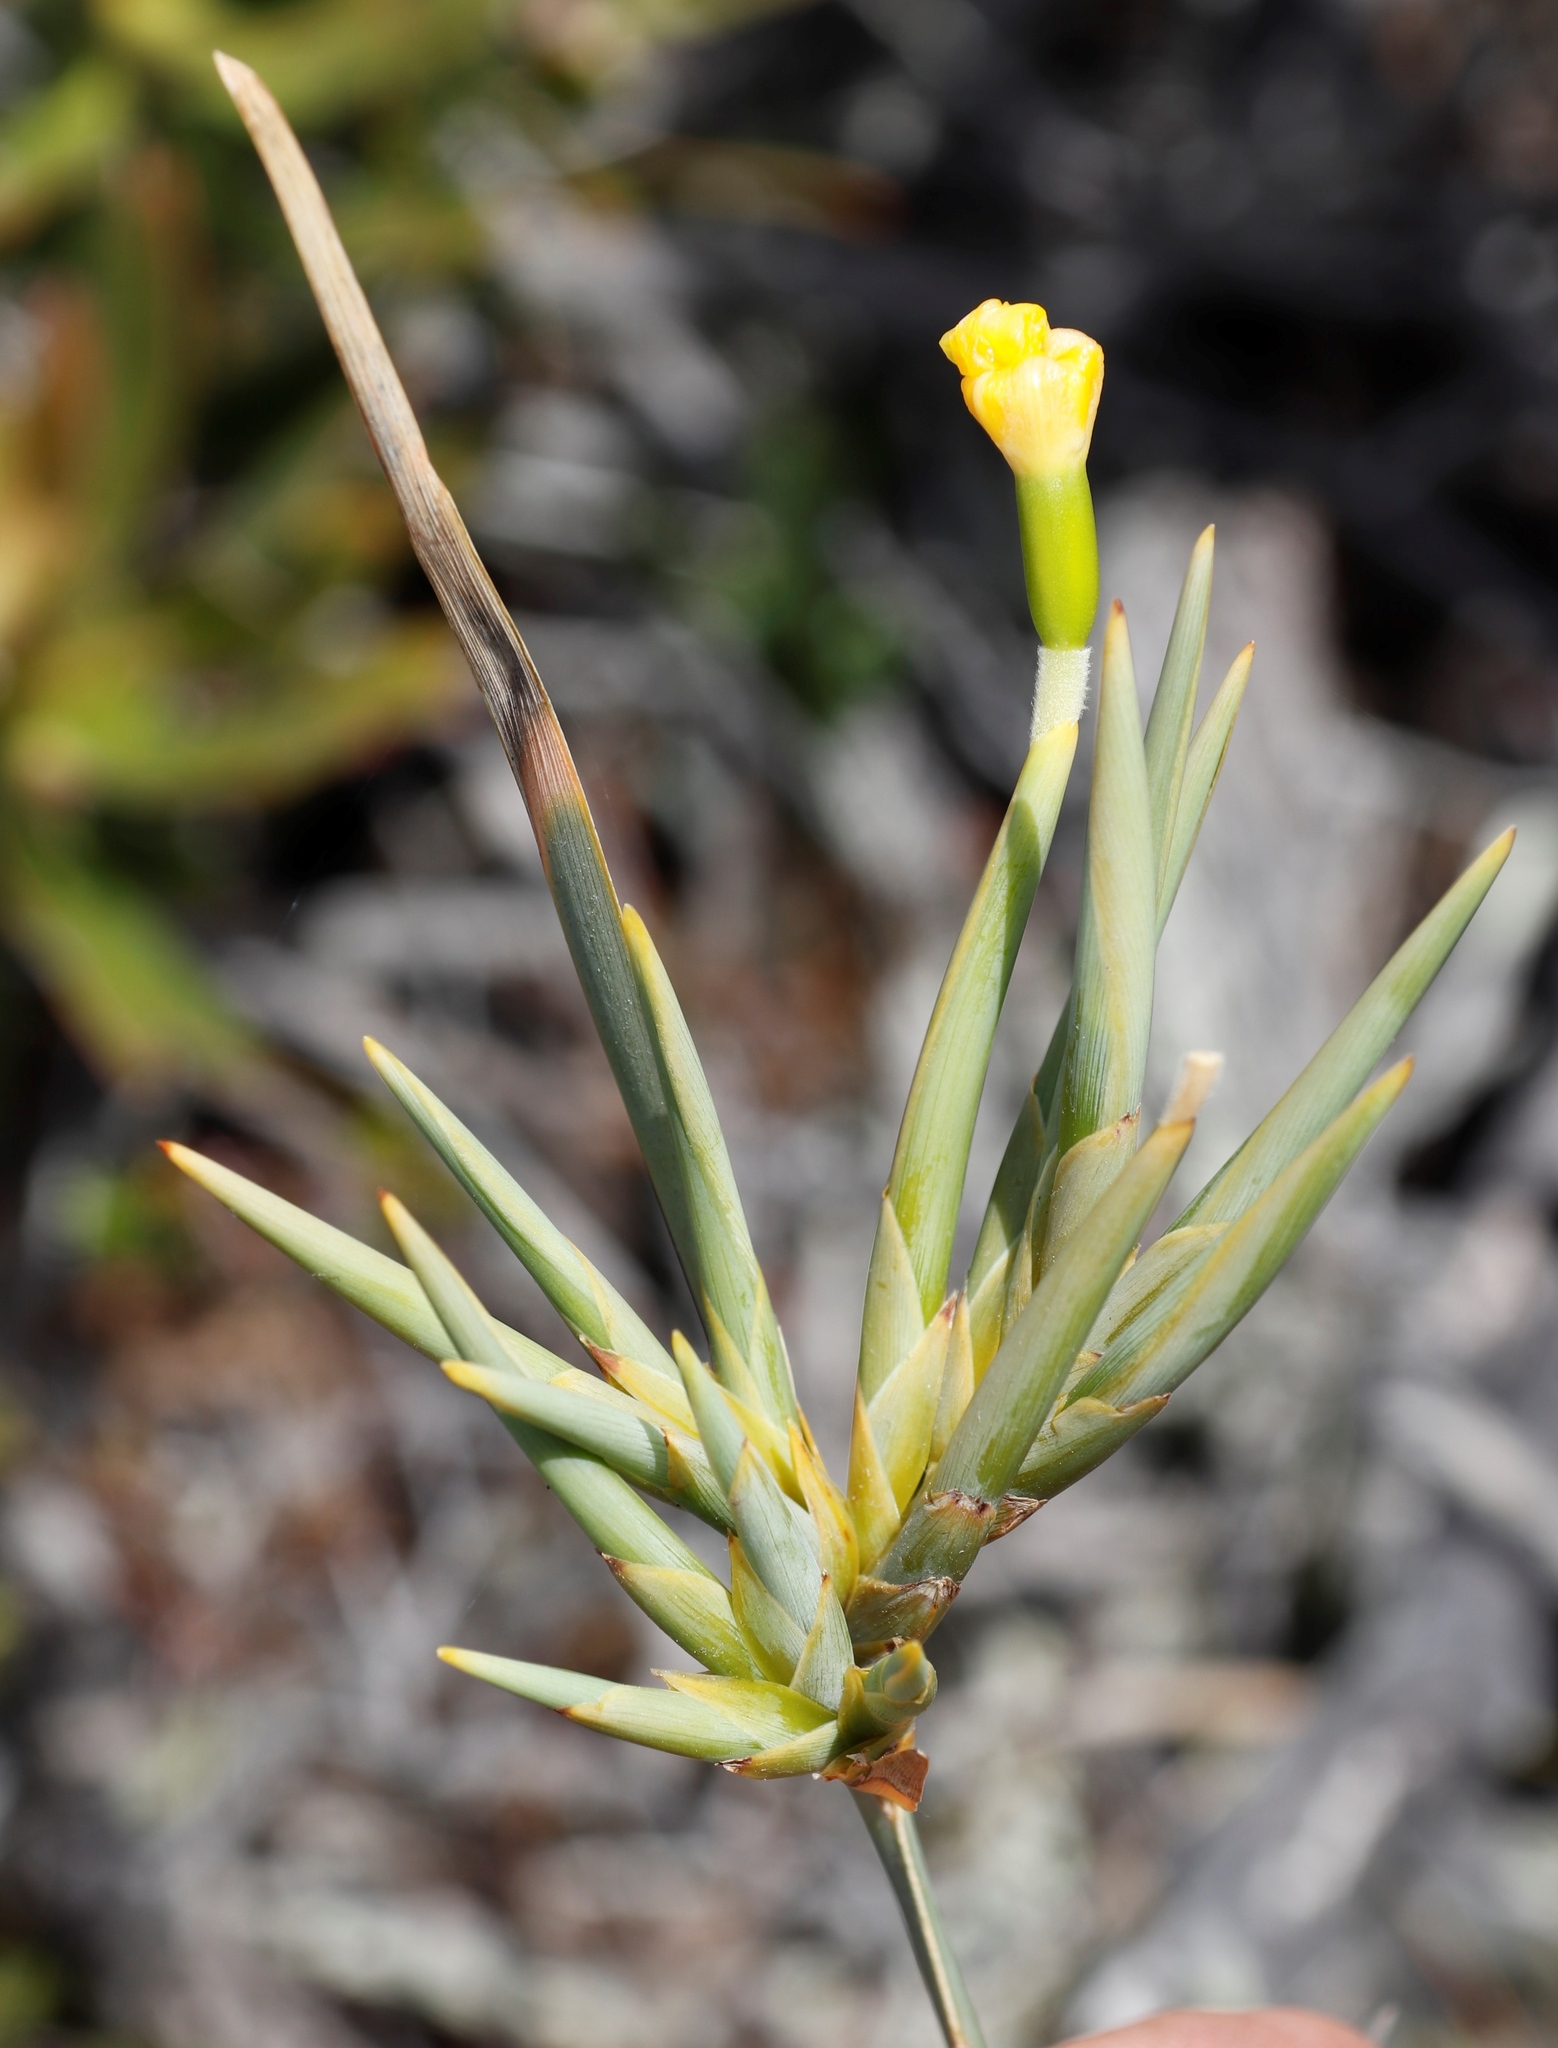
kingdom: Plantae
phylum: Tracheophyta
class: Liliopsida
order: Asparagales
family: Iridaceae
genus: Bobartia
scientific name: Bobartia gladiata
